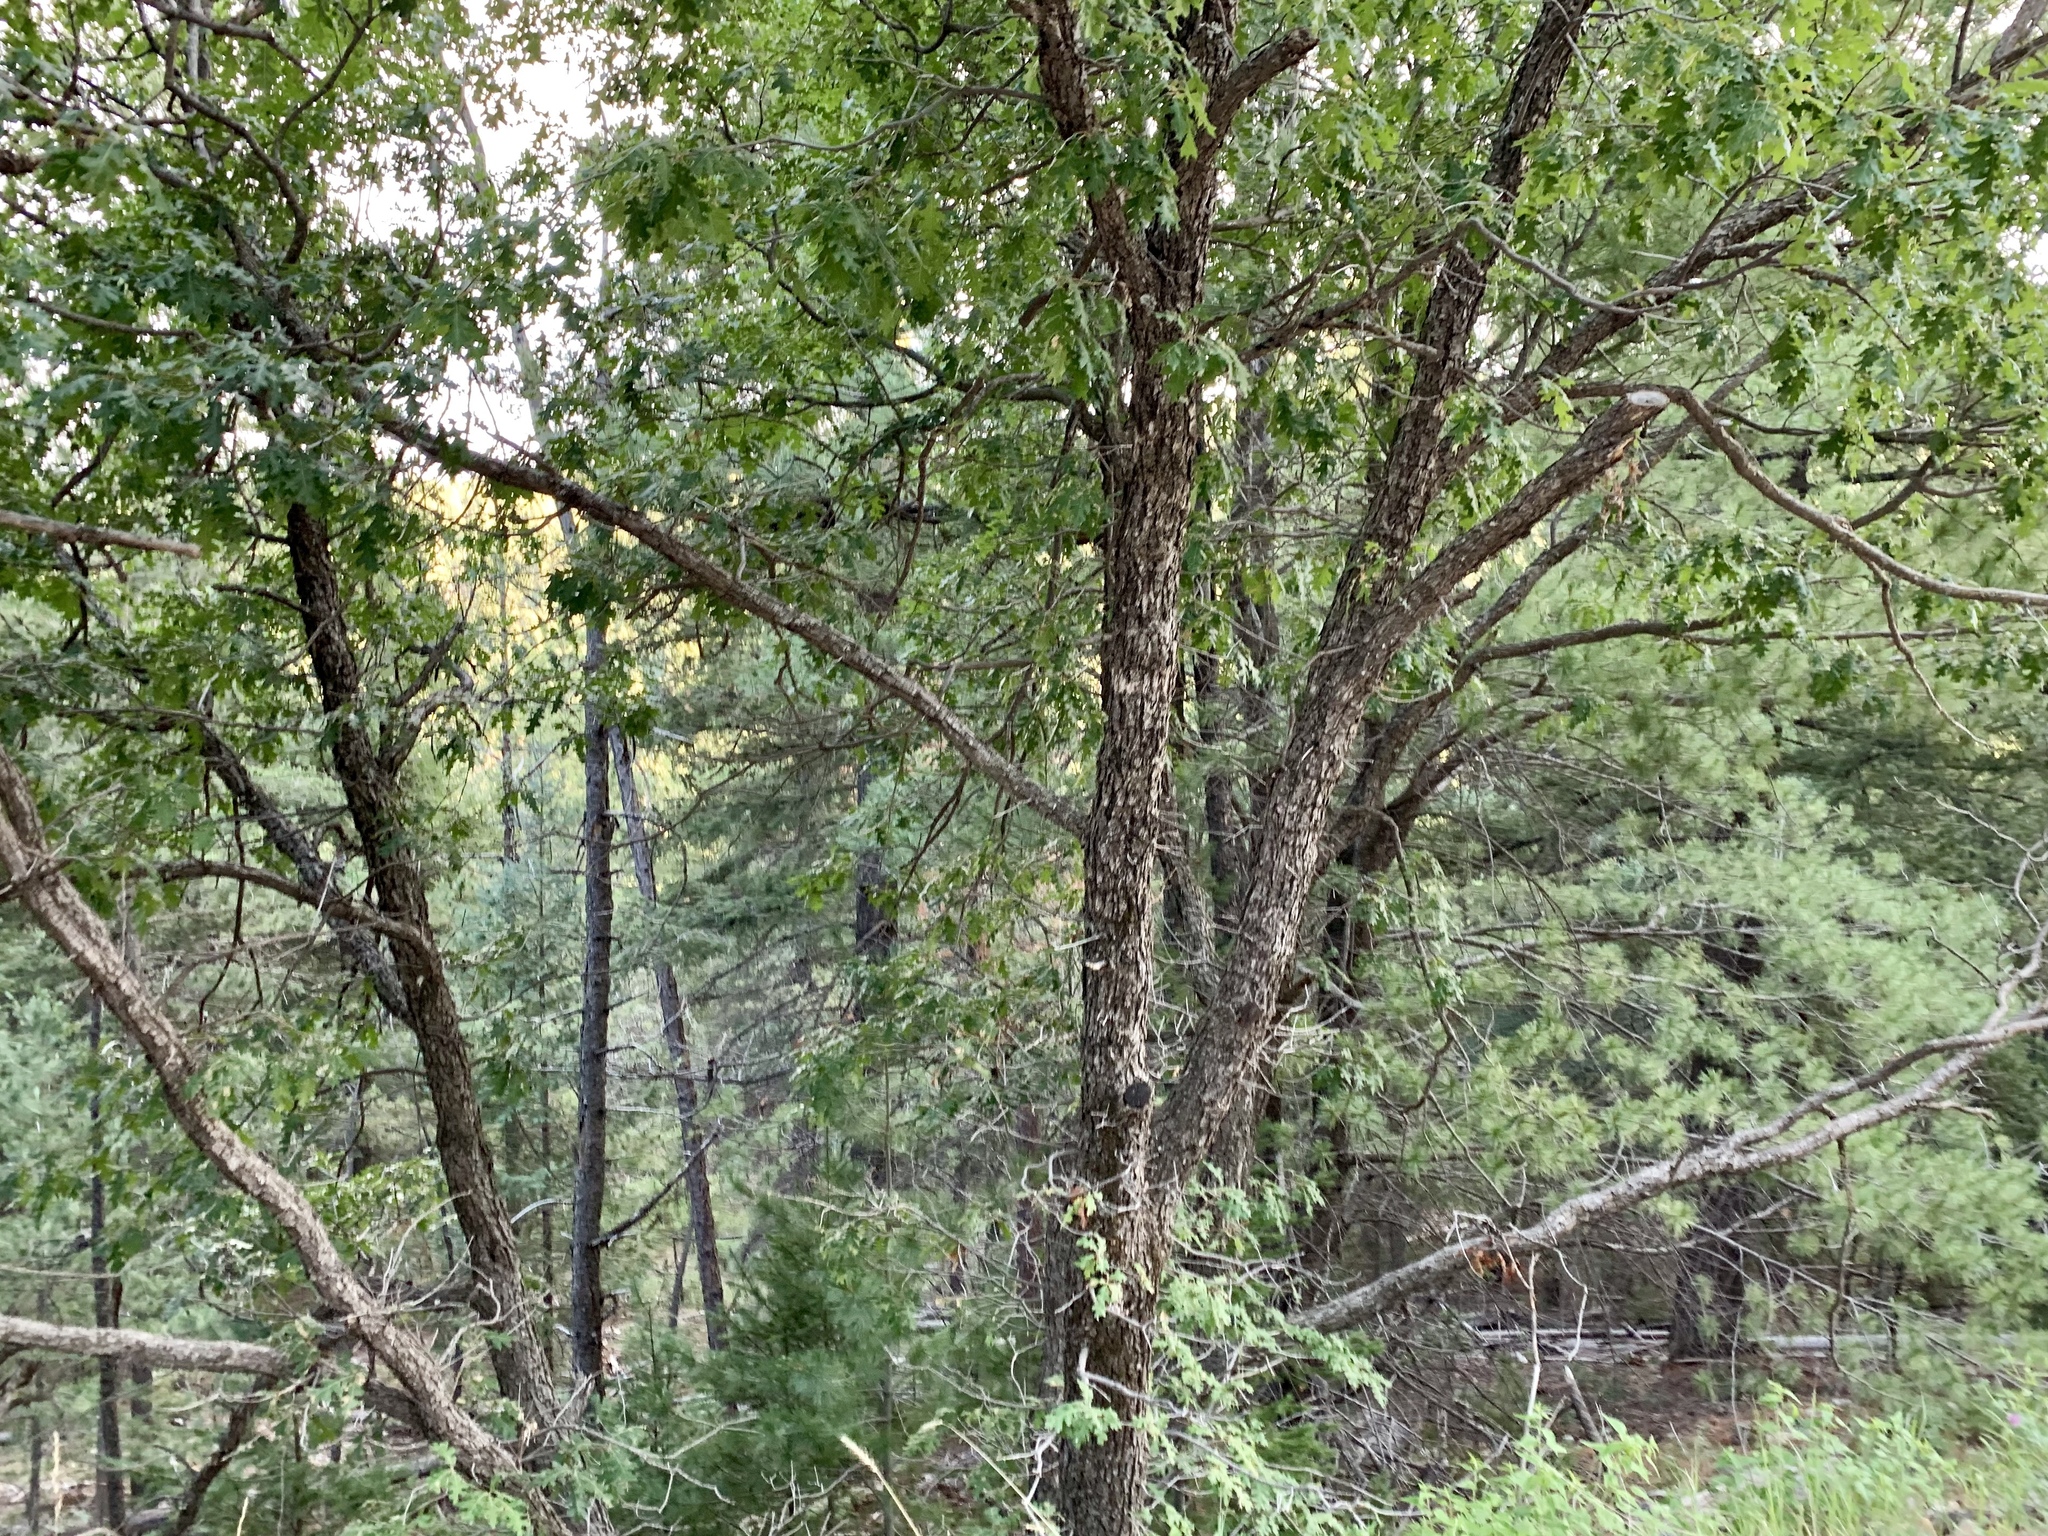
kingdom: Plantae
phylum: Tracheophyta
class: Magnoliopsida
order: Fagales
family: Fagaceae
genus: Quercus
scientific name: Quercus gambelii
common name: Gambel oak
